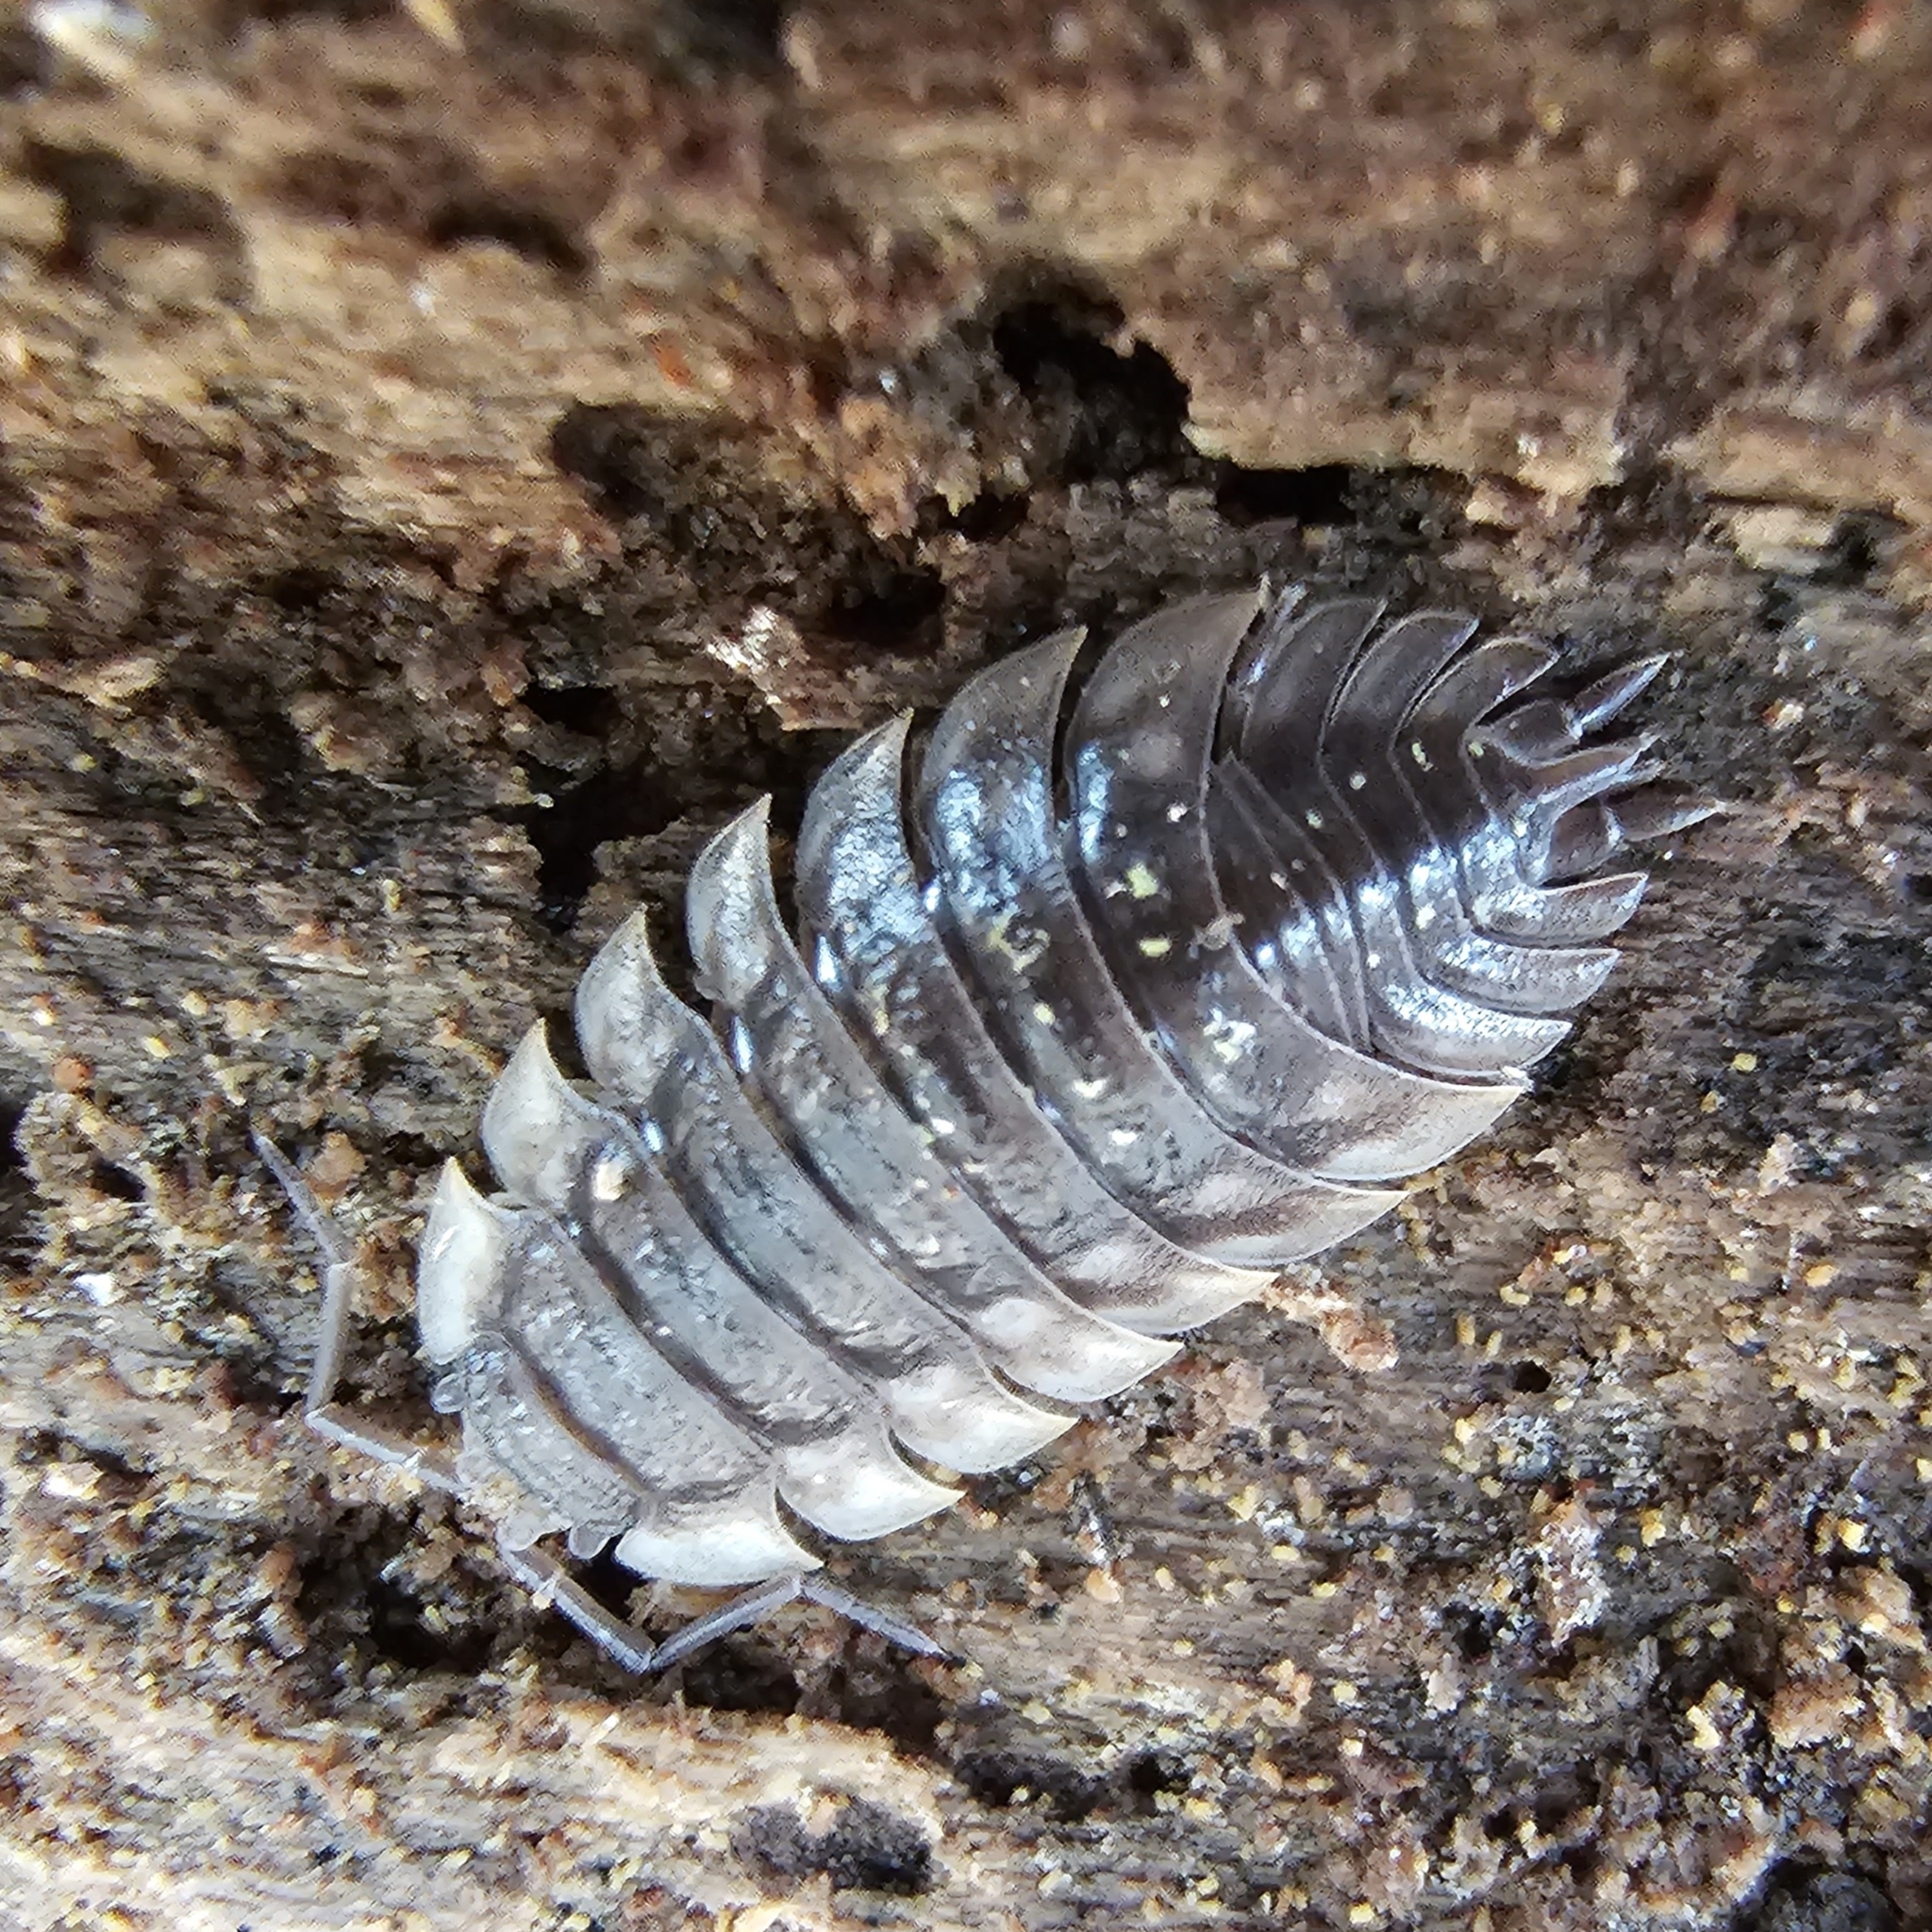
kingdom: Animalia
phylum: Arthropoda
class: Malacostraca
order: Isopoda
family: Oniscidae
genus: Oniscus
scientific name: Oniscus asellus
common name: Common shiny woodlouse
